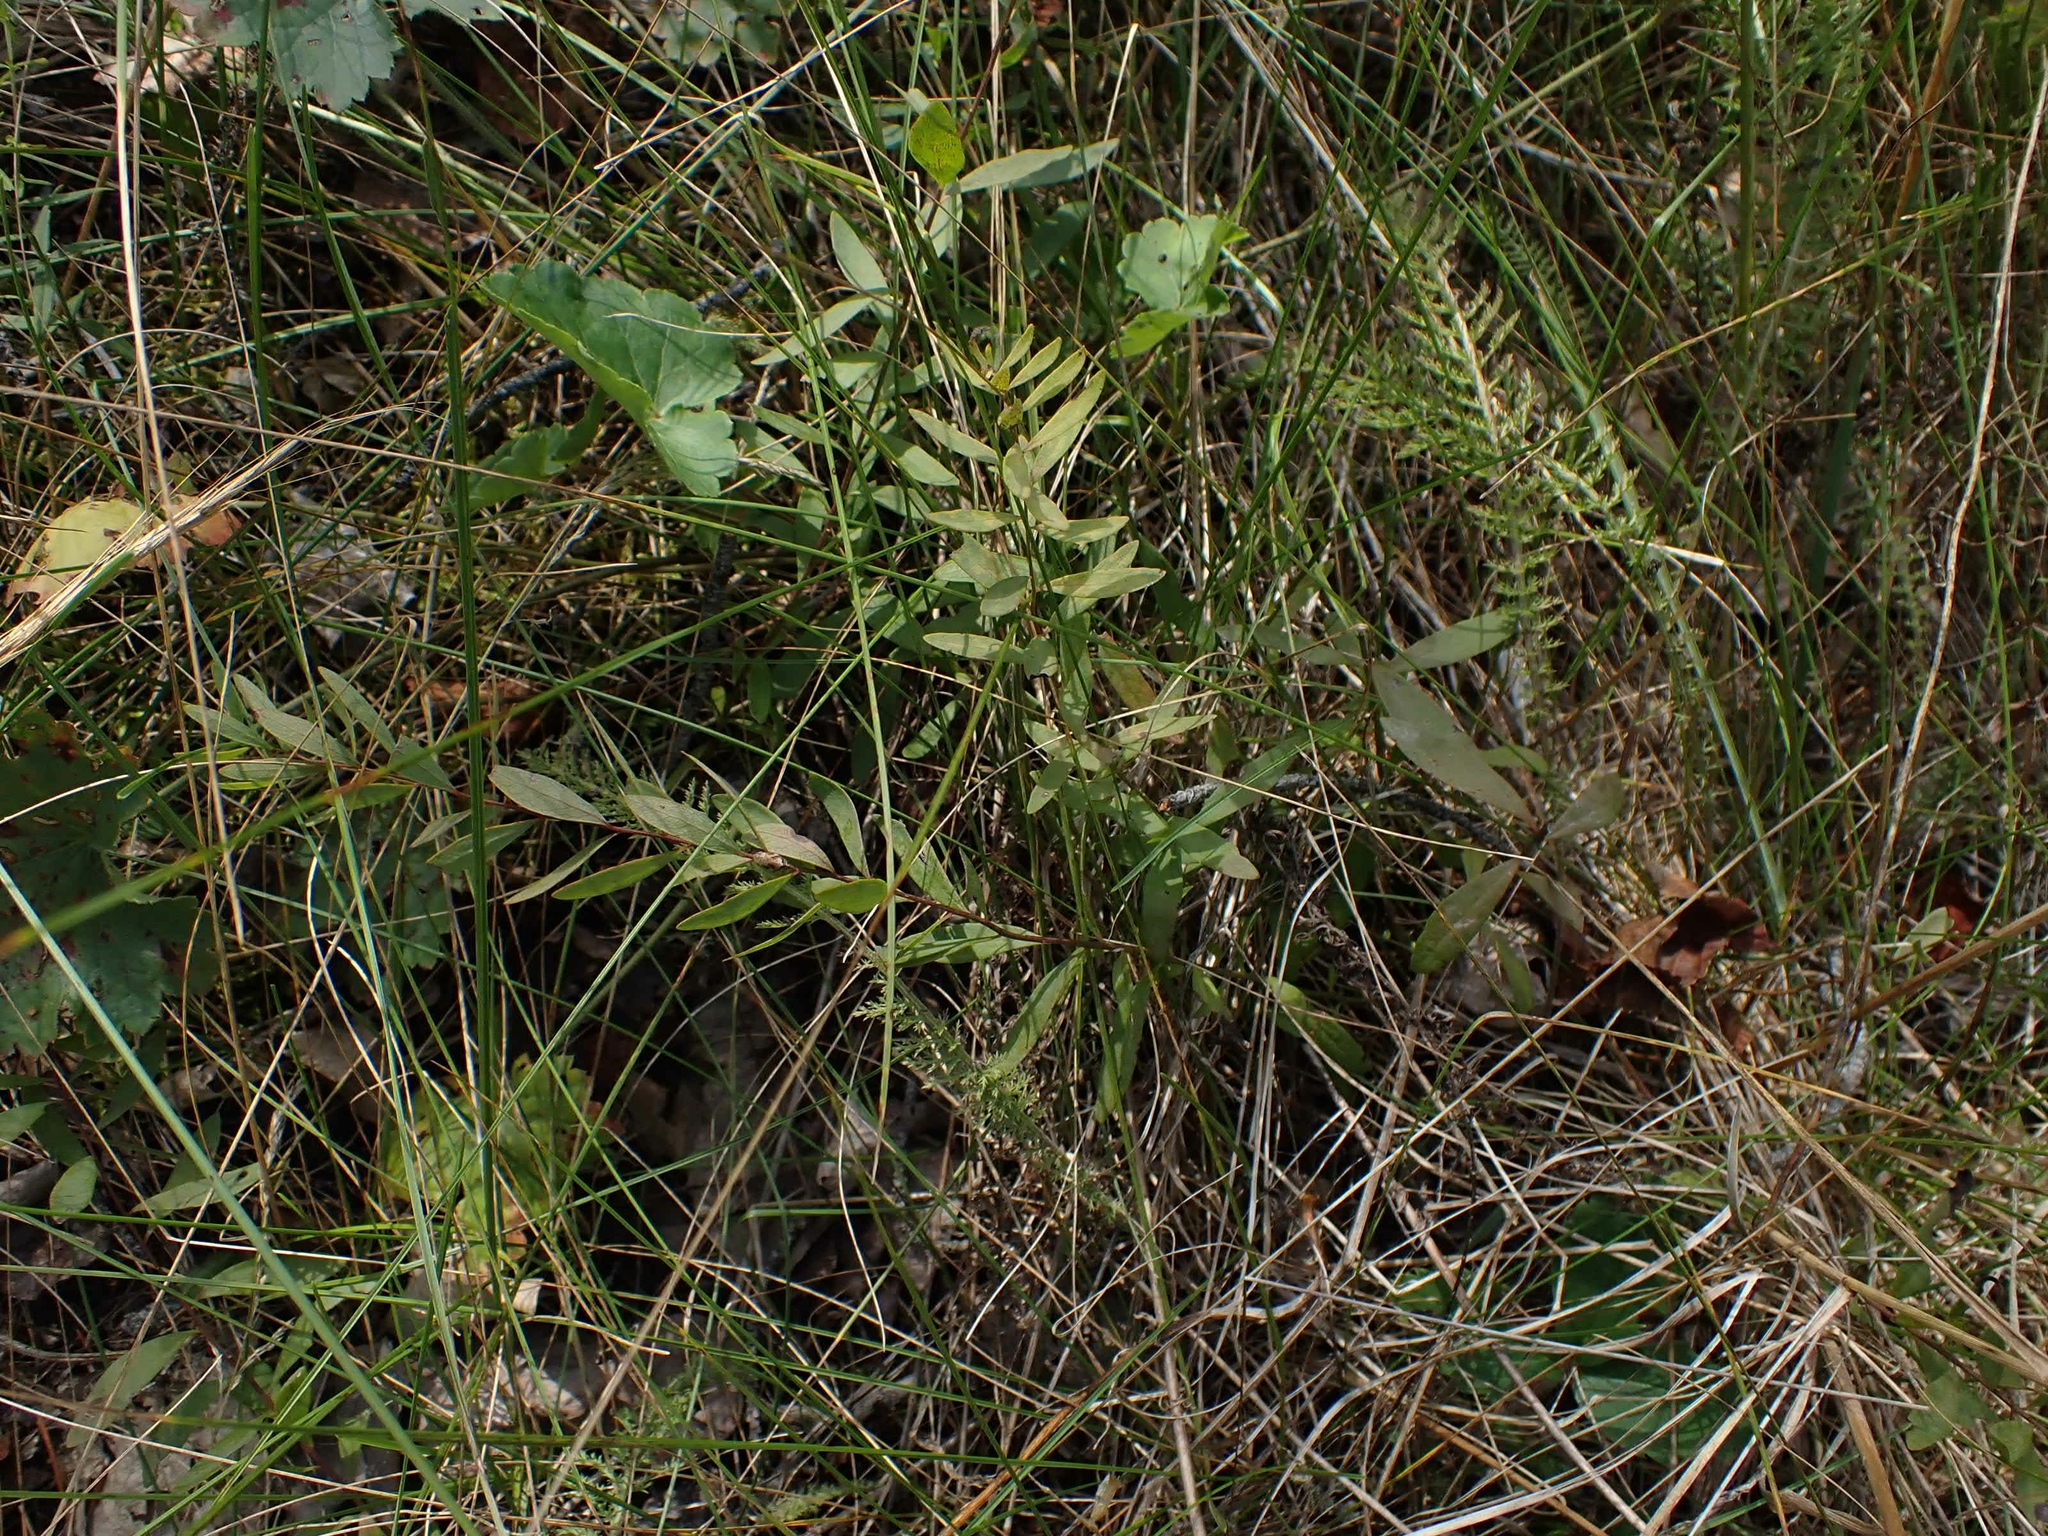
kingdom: Plantae
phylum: Tracheophyta
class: Magnoliopsida
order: Santalales
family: Comandraceae
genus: Comandra
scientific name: Comandra umbellata
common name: Bastard toadflax
